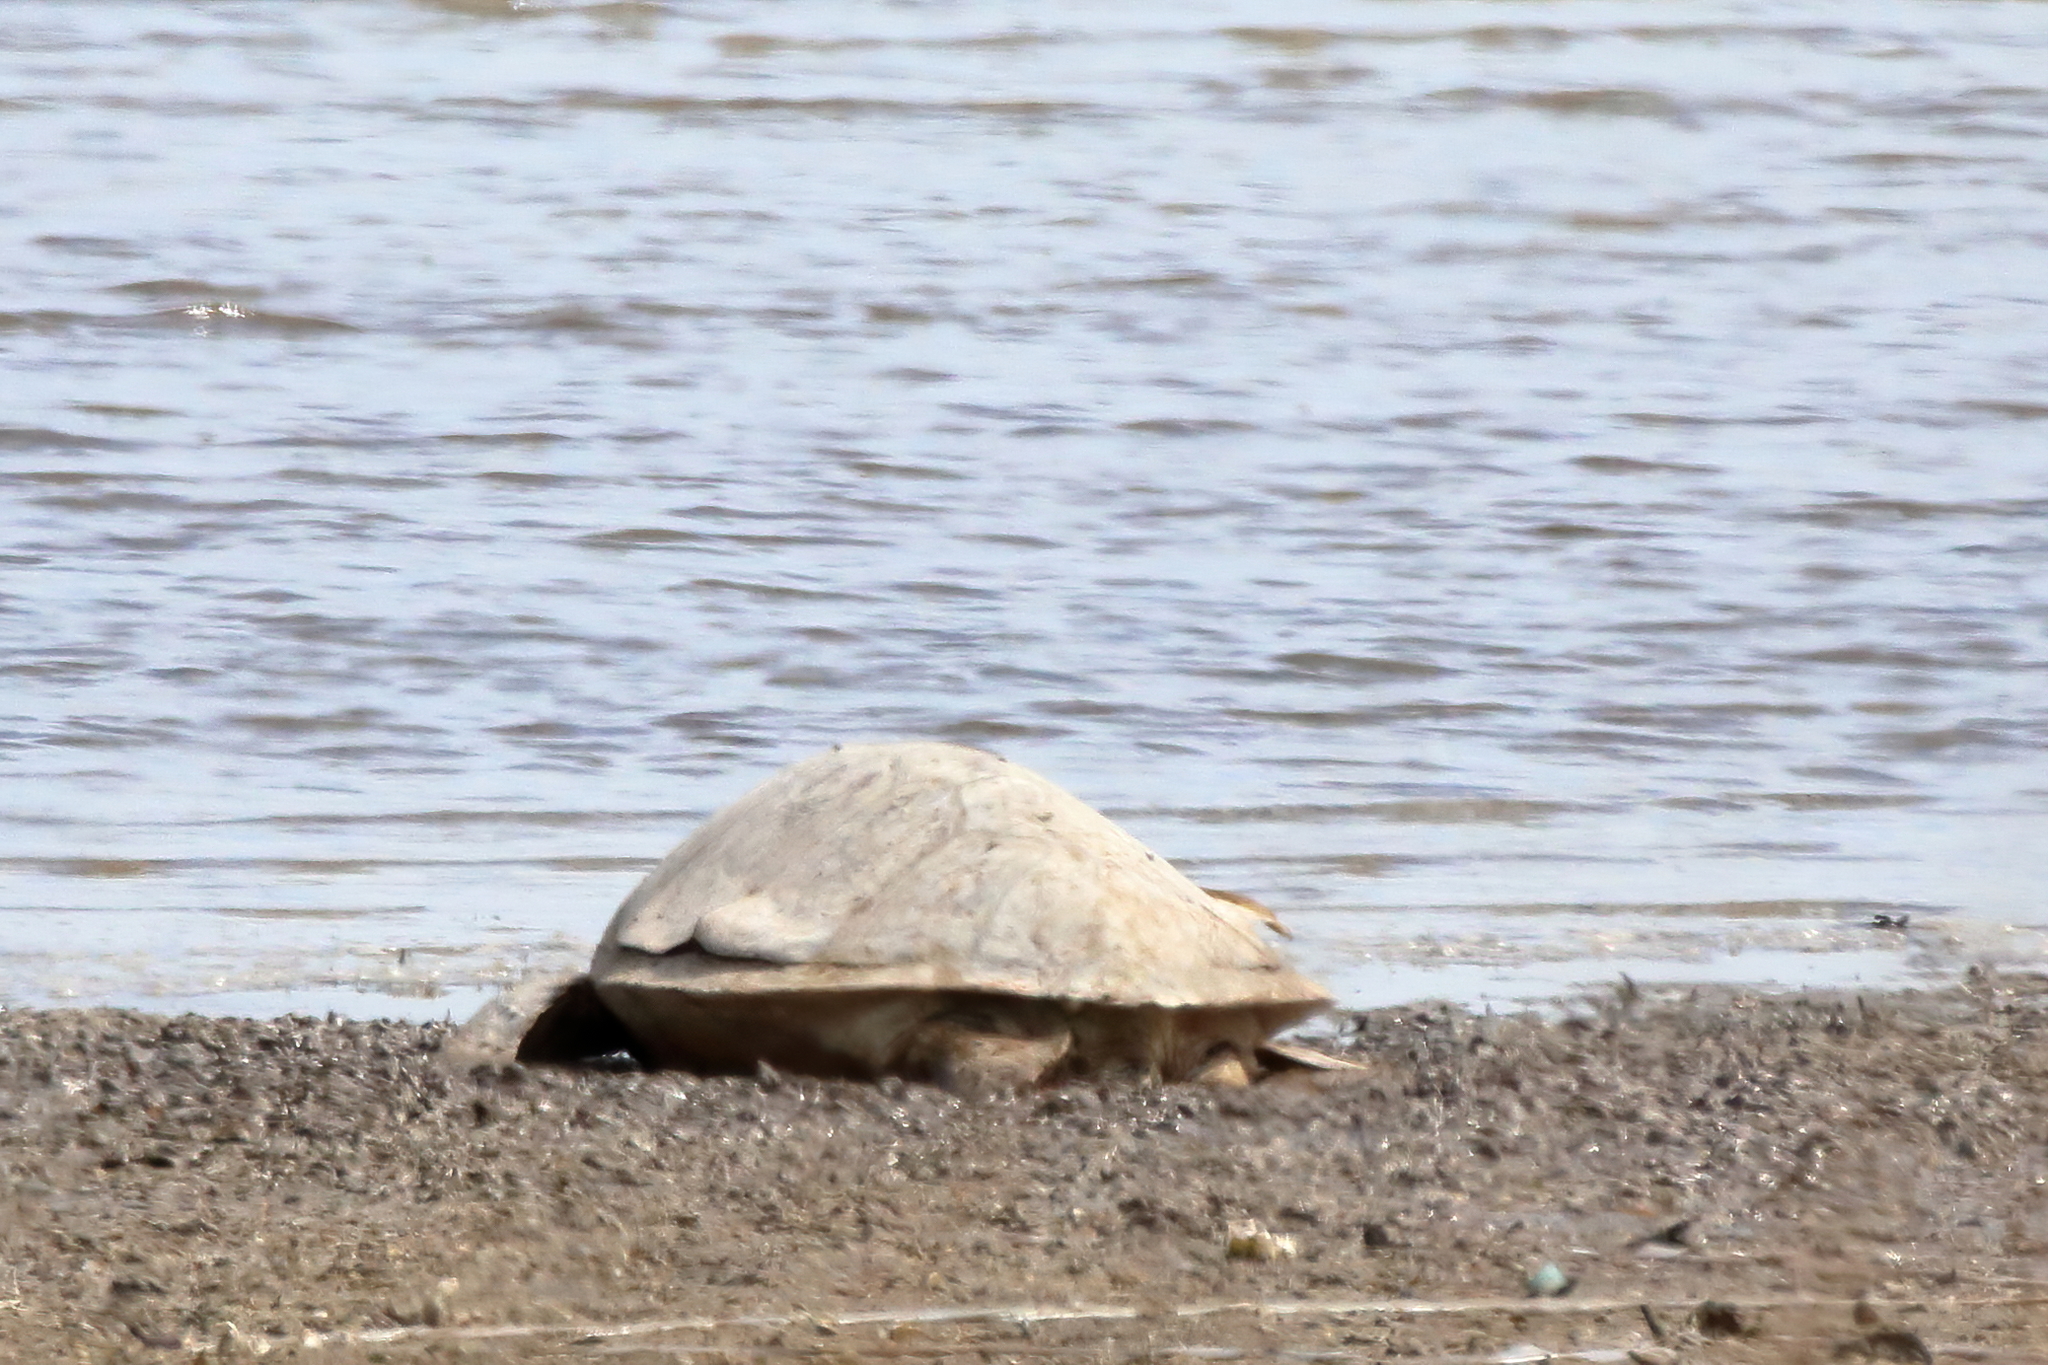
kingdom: Animalia
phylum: Chordata
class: Testudines
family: Cheloniidae
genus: Chelonia
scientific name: Chelonia mydas
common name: Green turtle
